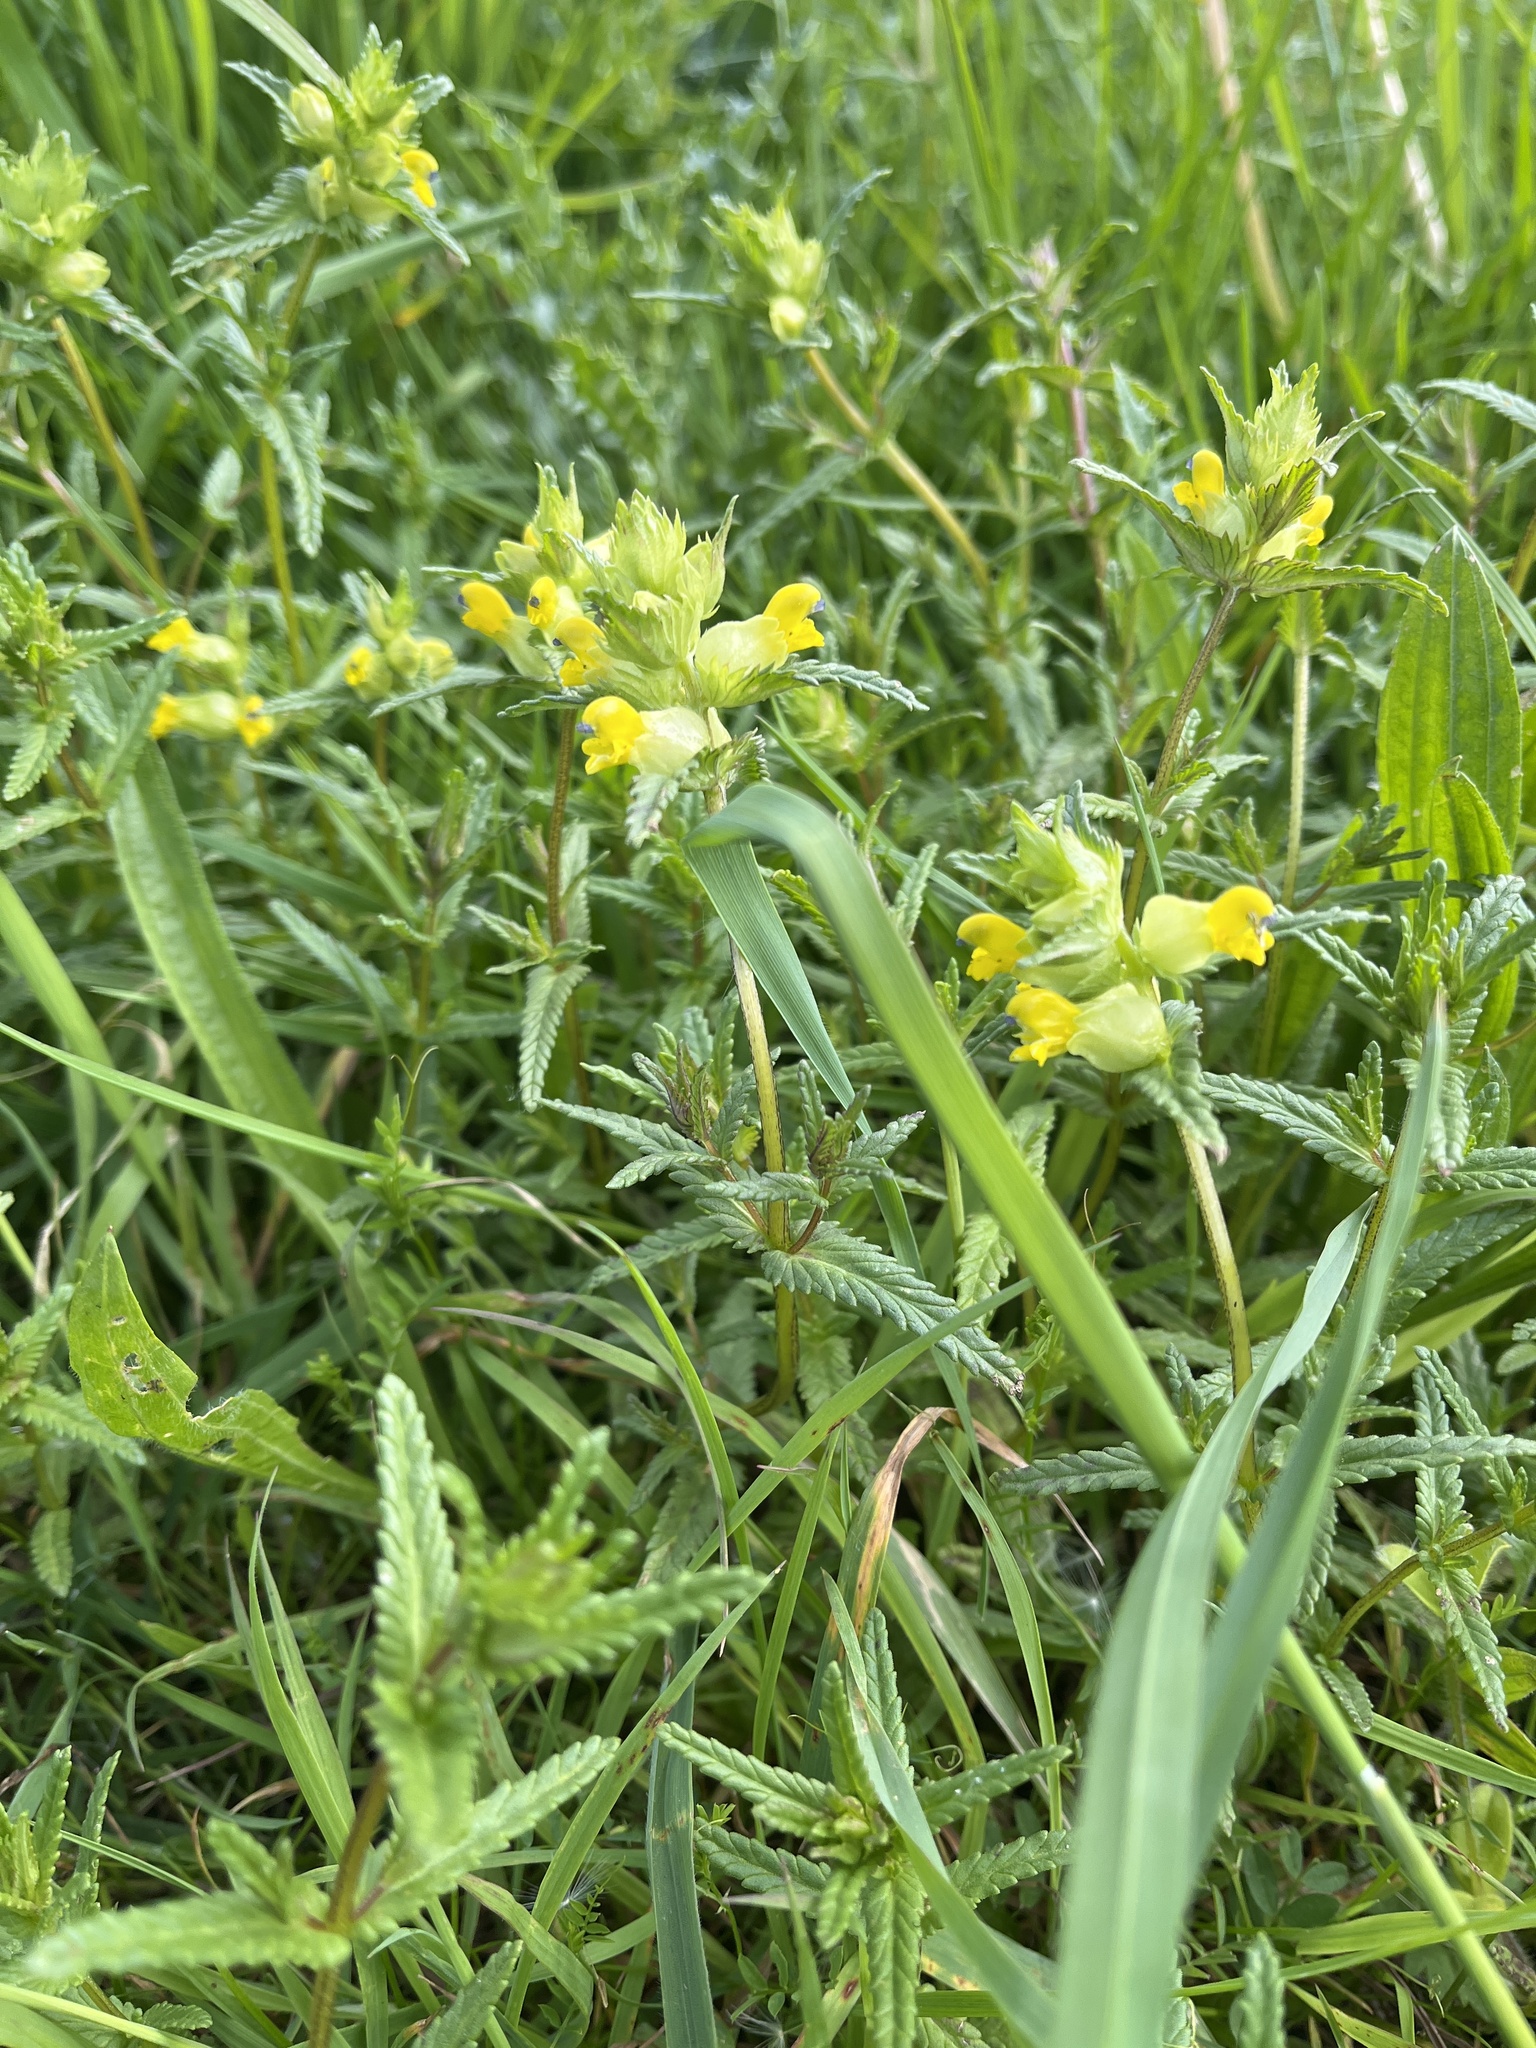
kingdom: Plantae
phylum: Tracheophyta
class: Magnoliopsida
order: Lamiales
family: Orobanchaceae
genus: Rhinanthus
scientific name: Rhinanthus minor
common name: Yellow-rattle
